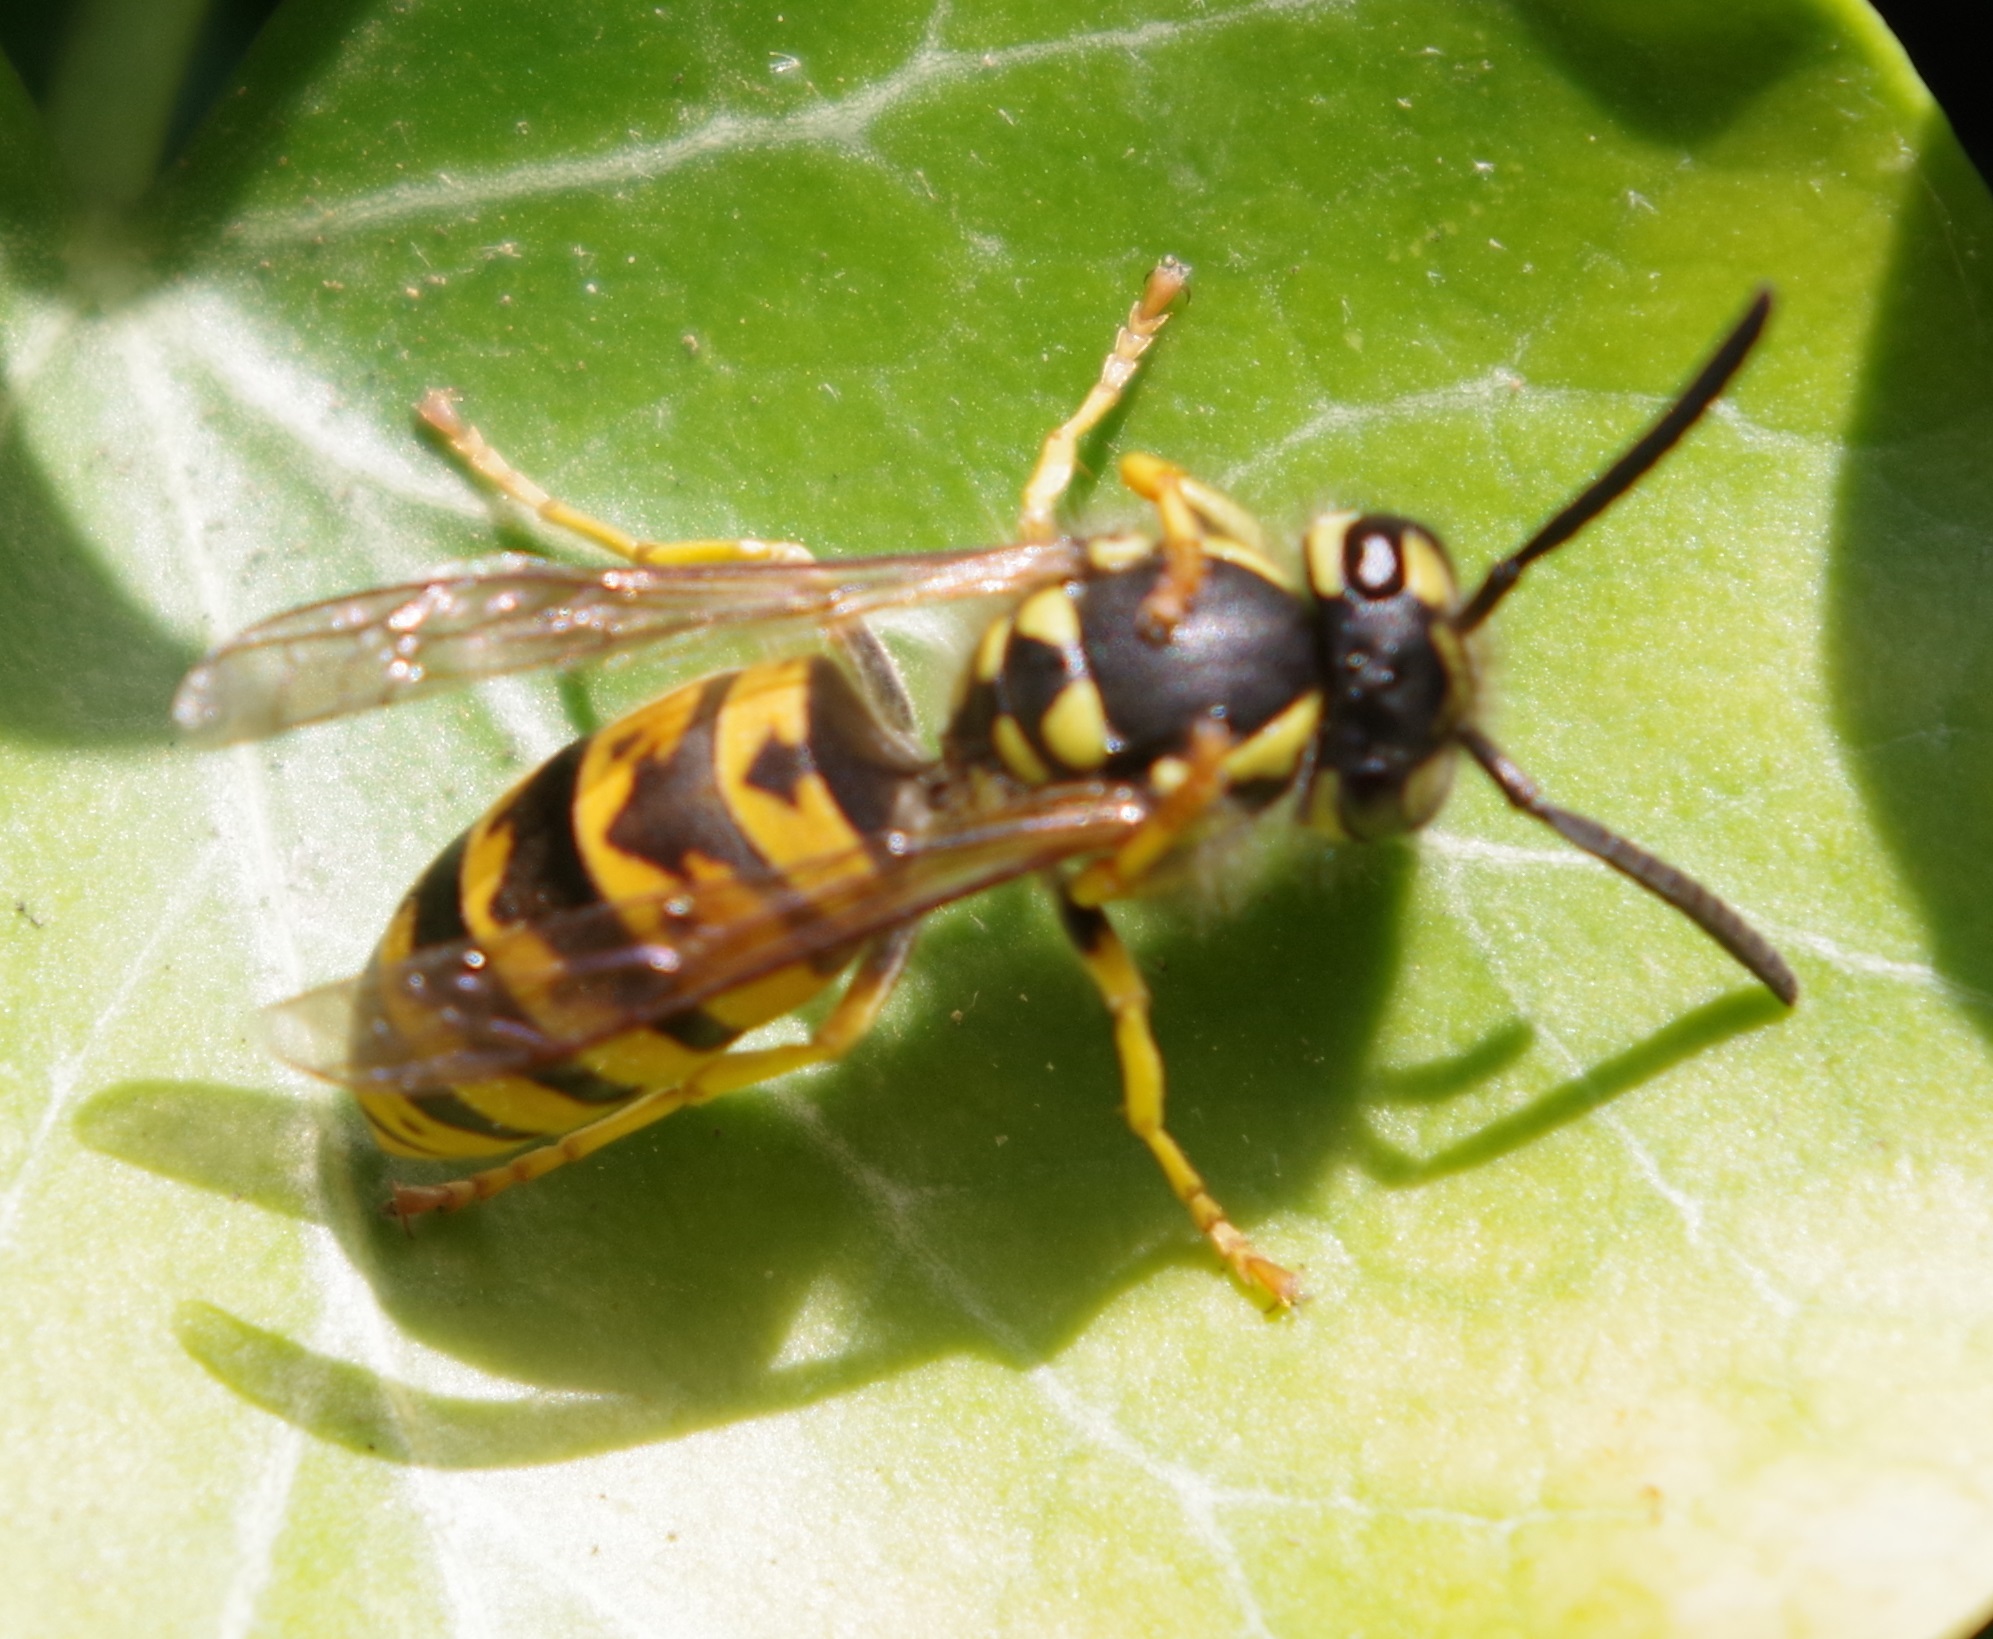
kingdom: Animalia
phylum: Arthropoda
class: Insecta
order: Hymenoptera
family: Vespidae
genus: Vespula
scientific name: Vespula germanica
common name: German wasp
